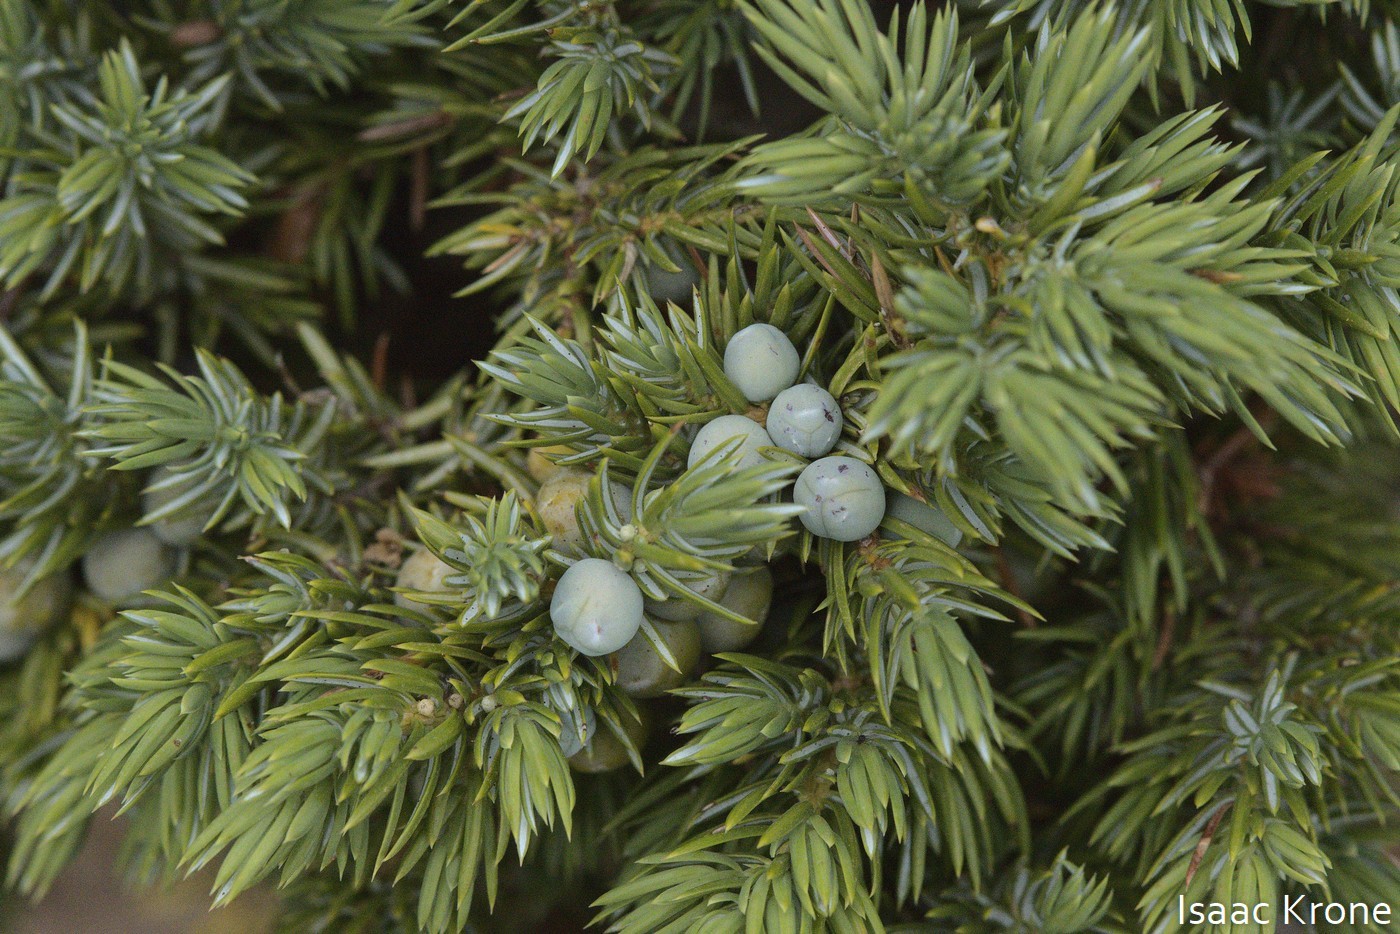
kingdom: Plantae
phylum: Tracheophyta
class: Pinopsida
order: Pinales
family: Cupressaceae
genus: Juniperus
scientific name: Juniperus communis
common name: Common juniper
